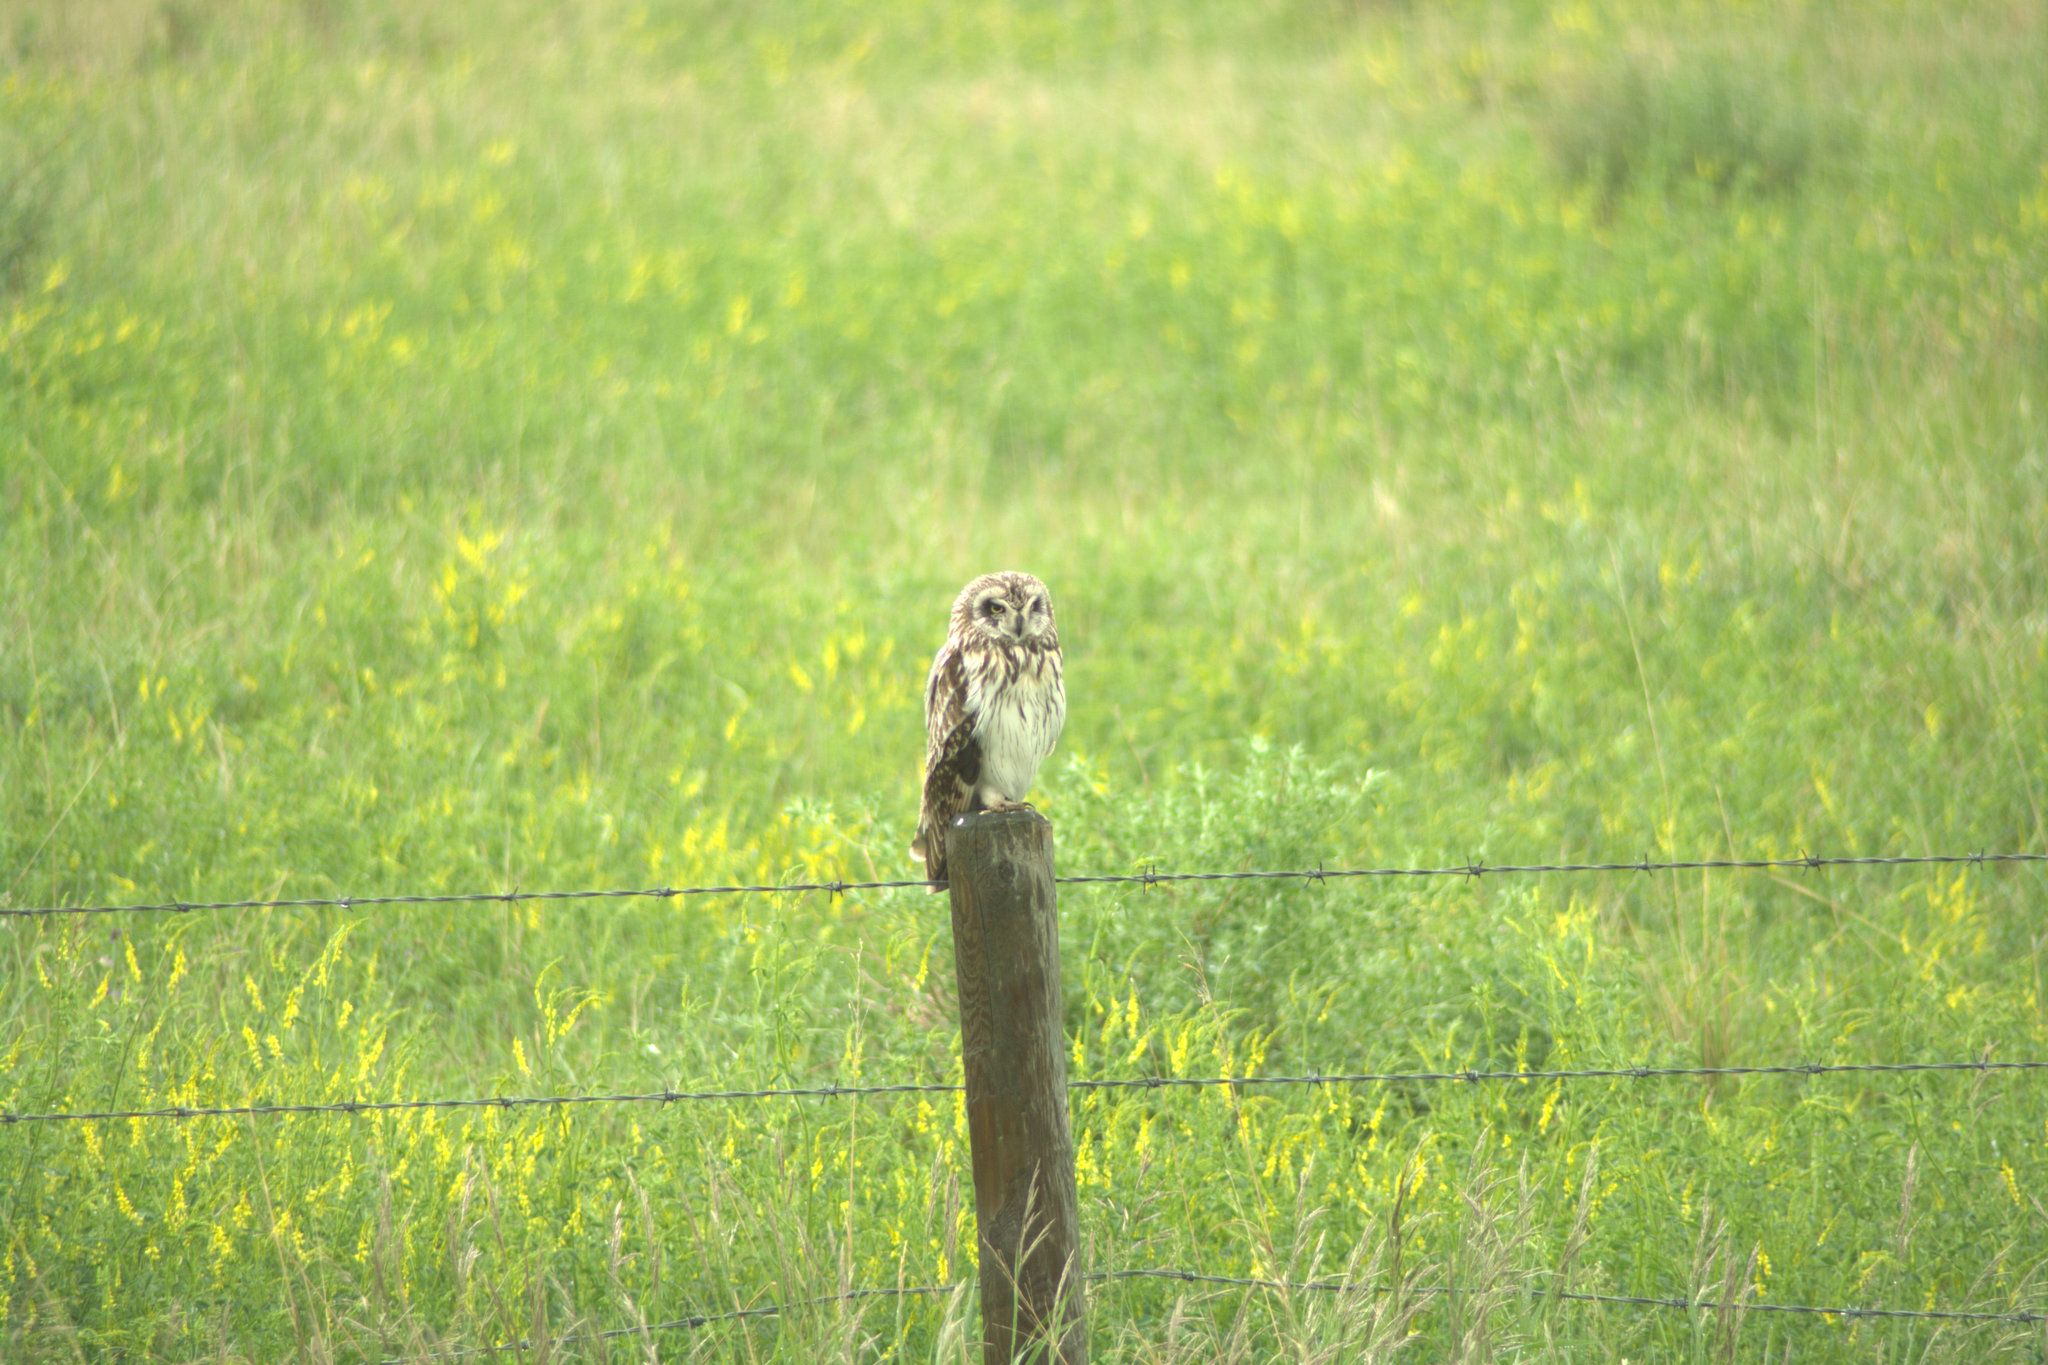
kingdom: Animalia
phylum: Chordata
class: Aves
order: Strigiformes
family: Strigidae
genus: Asio
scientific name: Asio flammeus
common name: Short-eared owl
